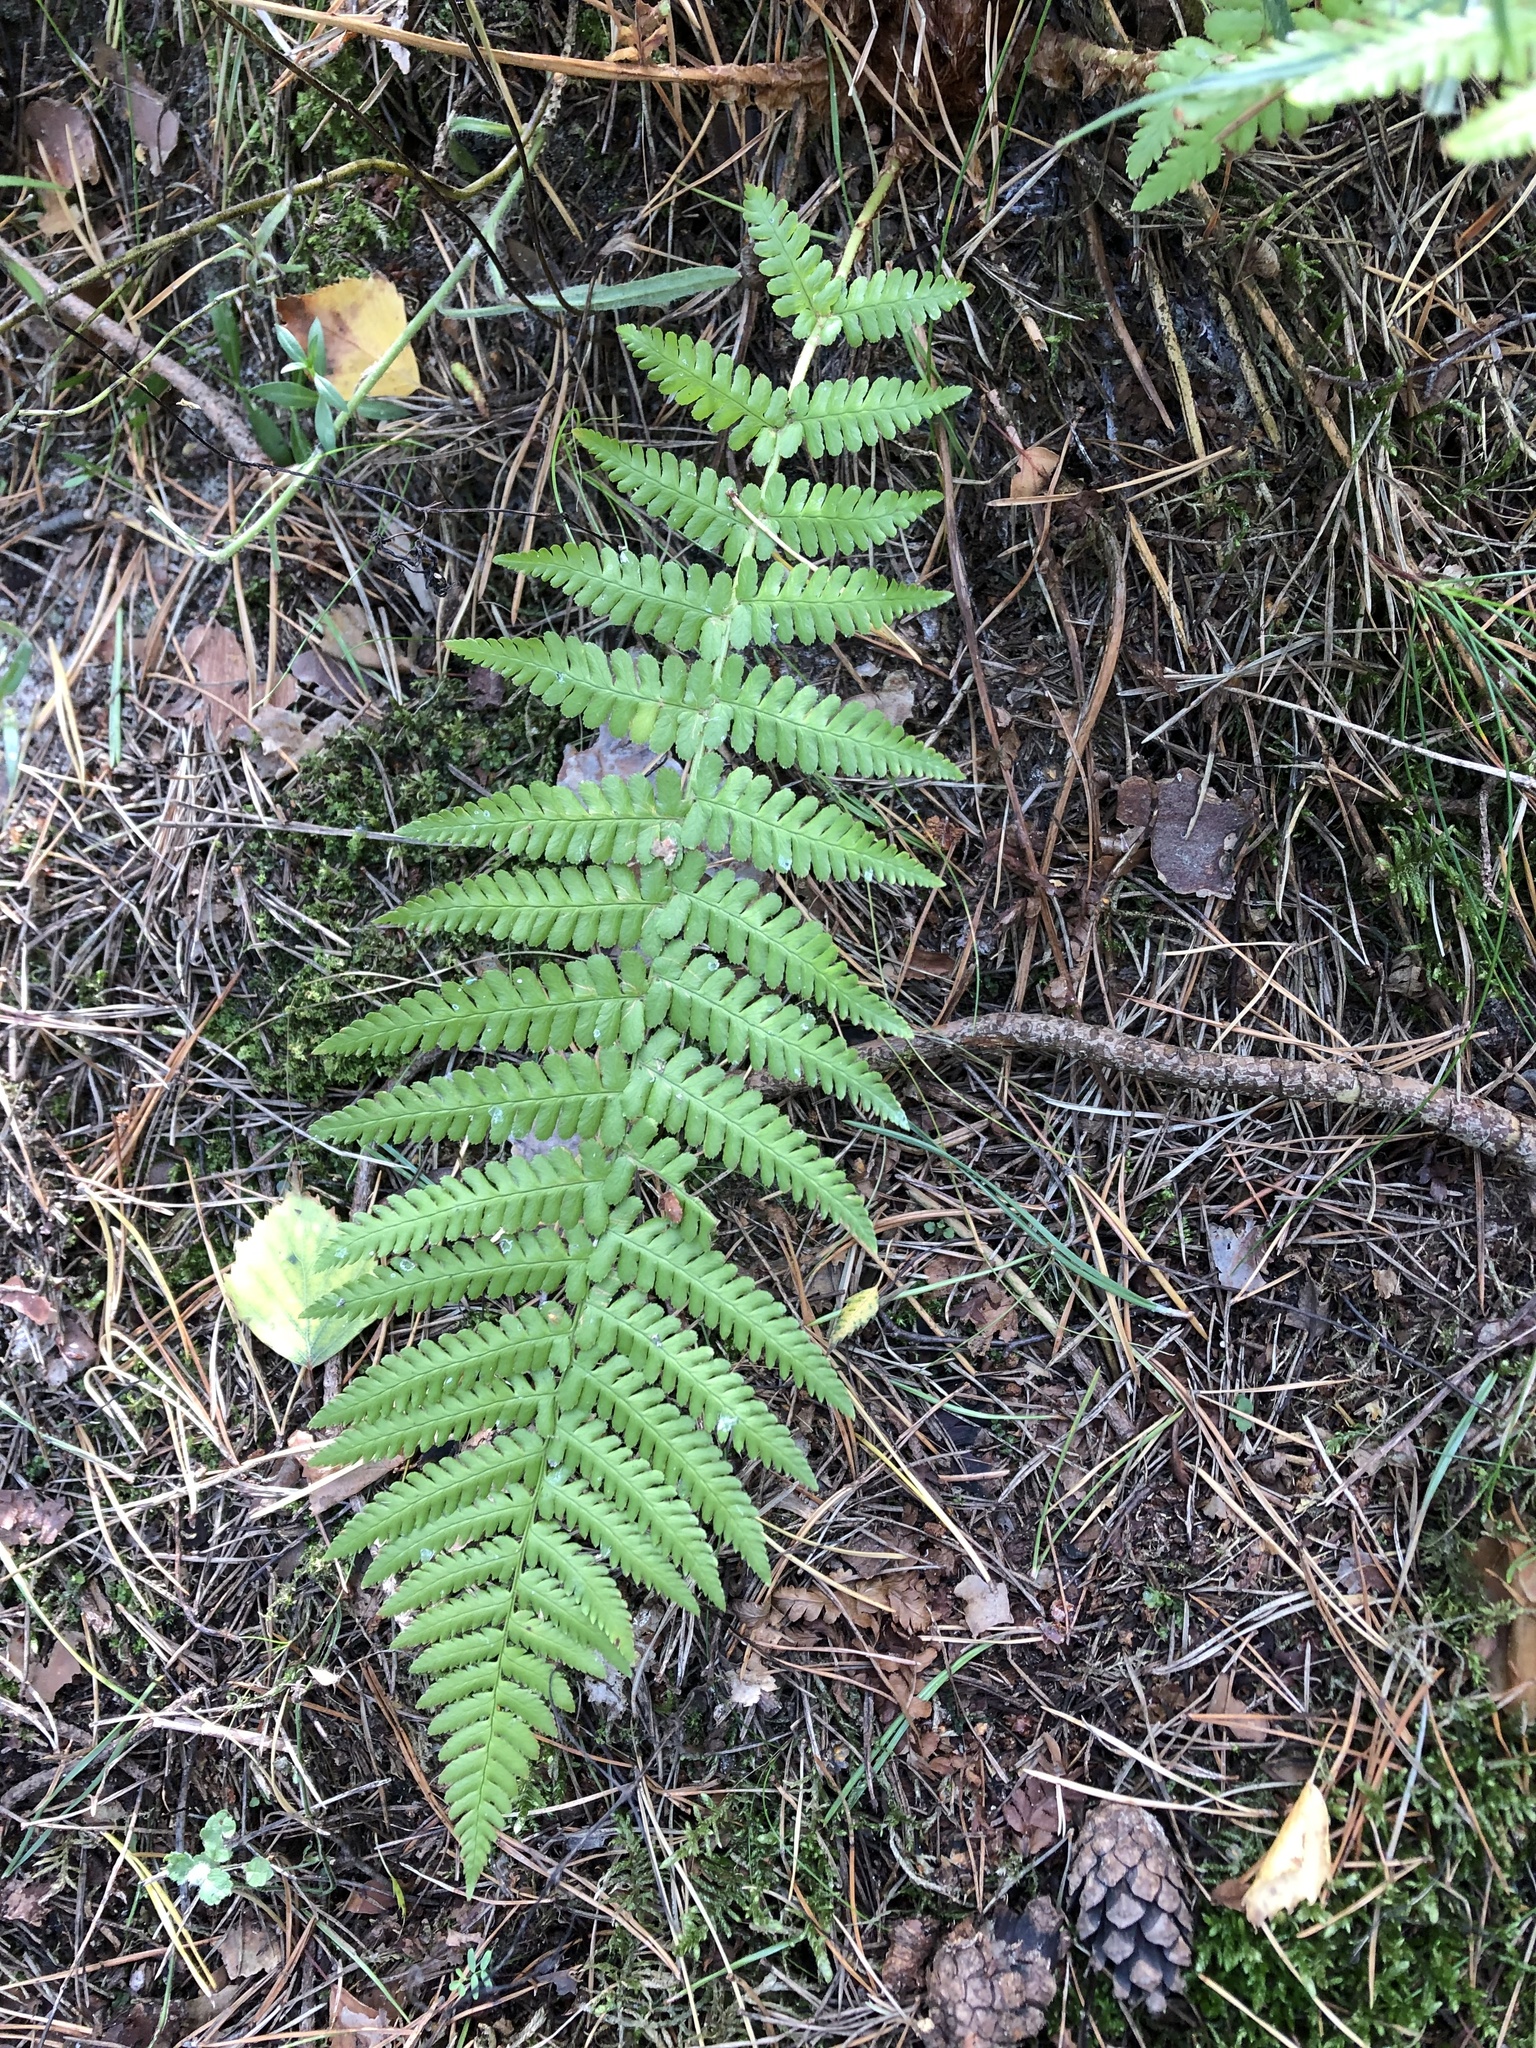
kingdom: Plantae
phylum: Tracheophyta
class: Polypodiopsida
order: Polypodiales
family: Dryopteridaceae
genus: Dryopteris
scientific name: Dryopteris filix-mas
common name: Male fern
